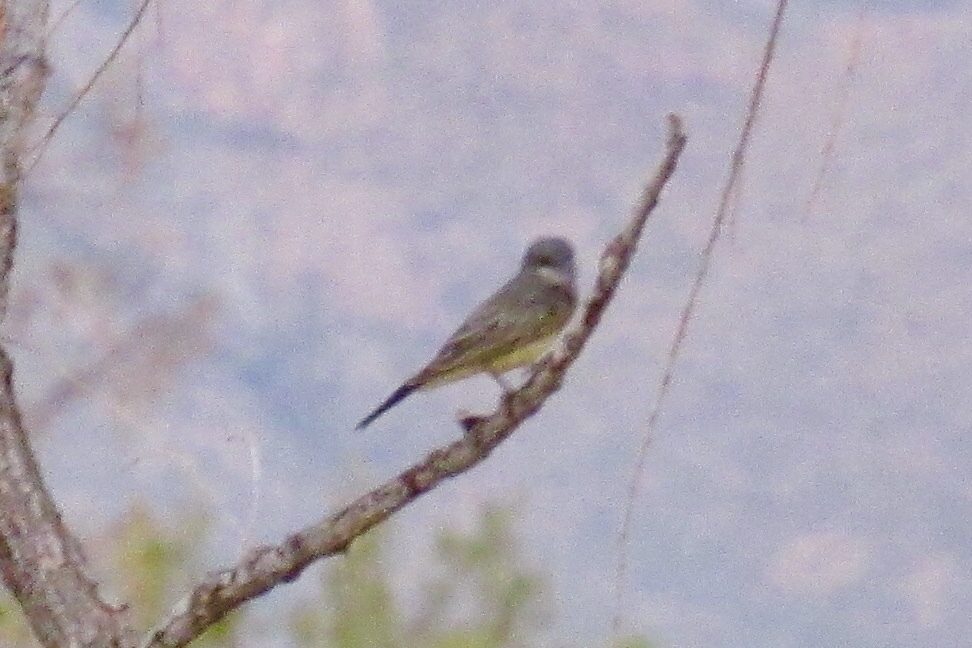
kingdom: Animalia
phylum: Chordata
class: Aves
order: Passeriformes
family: Tyrannidae
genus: Tyrannus
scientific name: Tyrannus vociferans
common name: Cassin's kingbird
